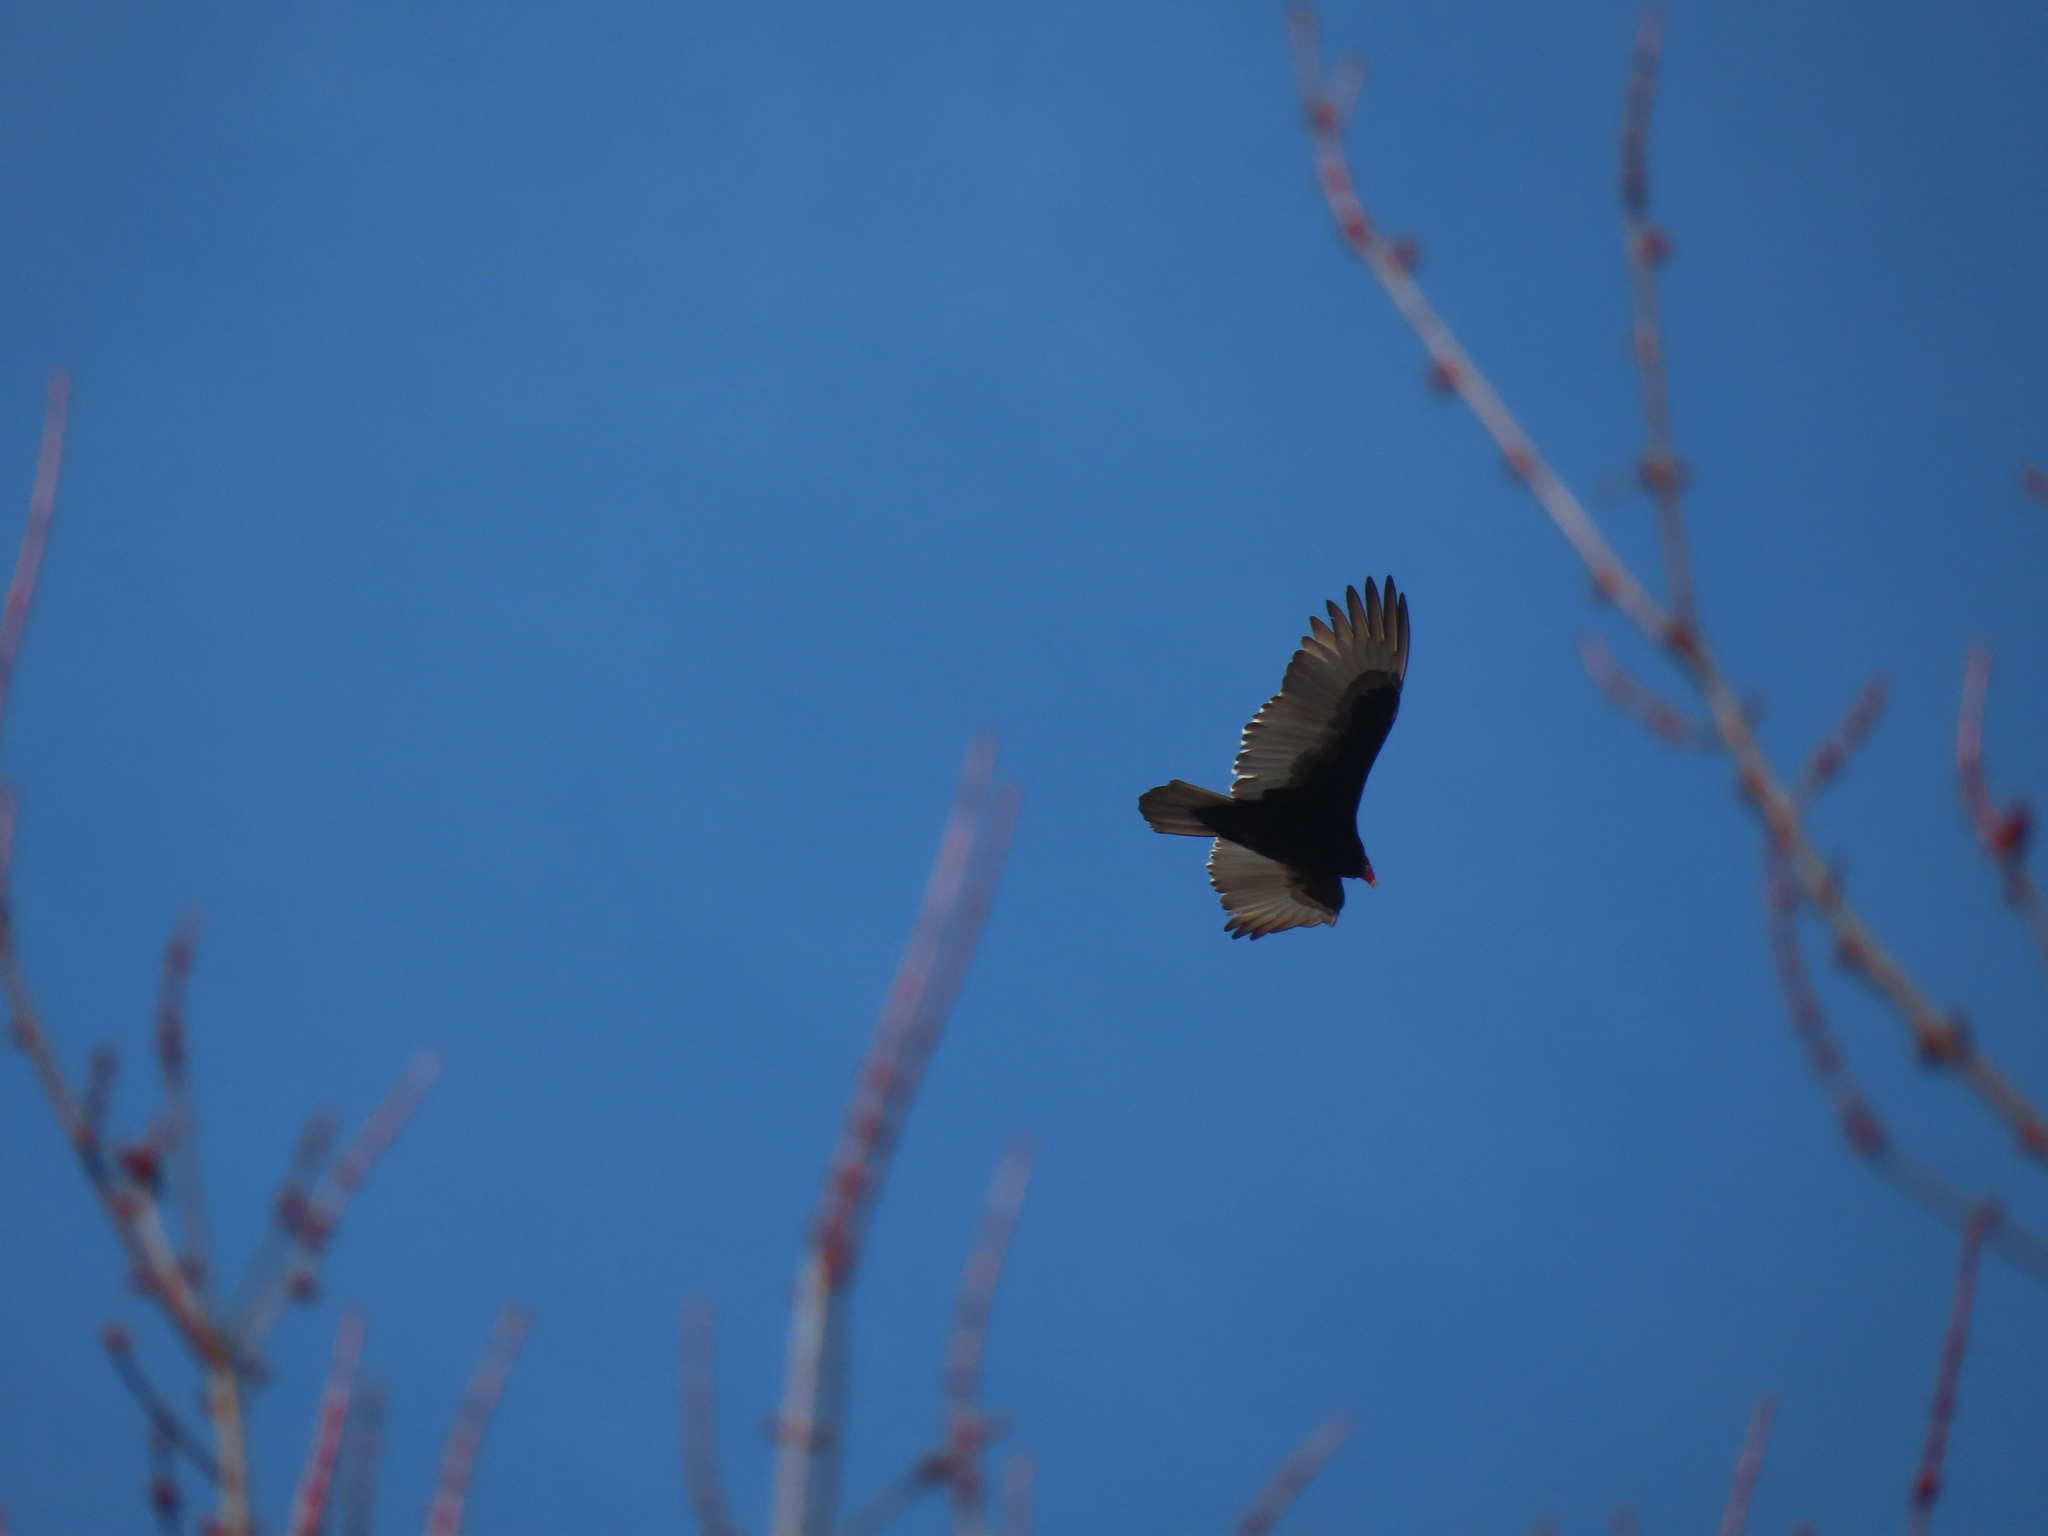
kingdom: Animalia
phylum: Chordata
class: Aves
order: Accipitriformes
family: Cathartidae
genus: Cathartes
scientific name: Cathartes aura
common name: Turkey vulture
